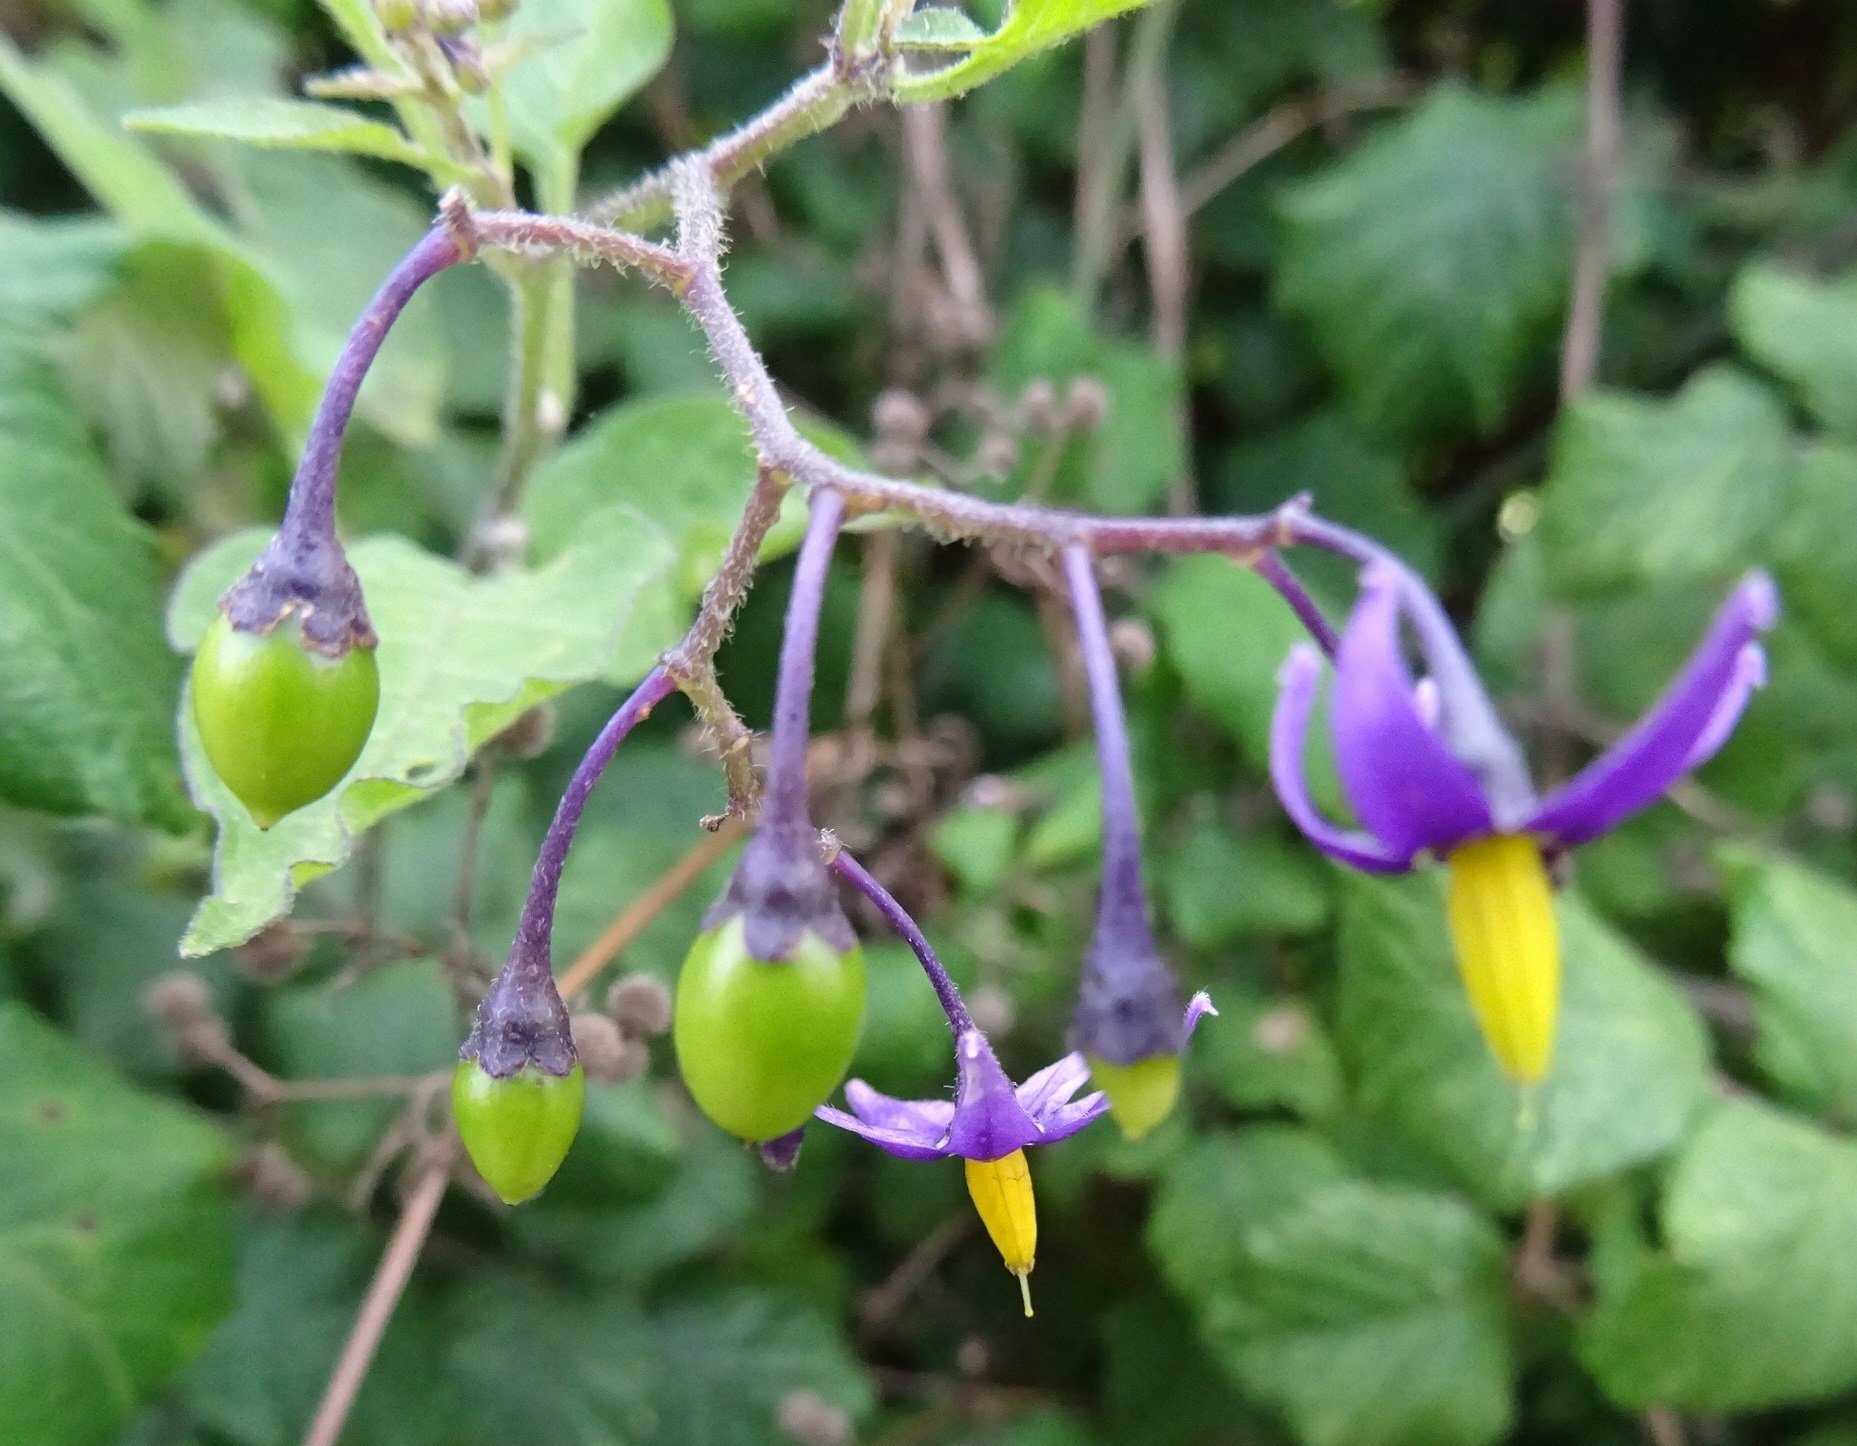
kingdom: Plantae
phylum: Tracheophyta
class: Magnoliopsida
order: Solanales
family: Solanaceae
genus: Solanum
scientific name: Solanum dulcamara
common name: Climbing nightshade
